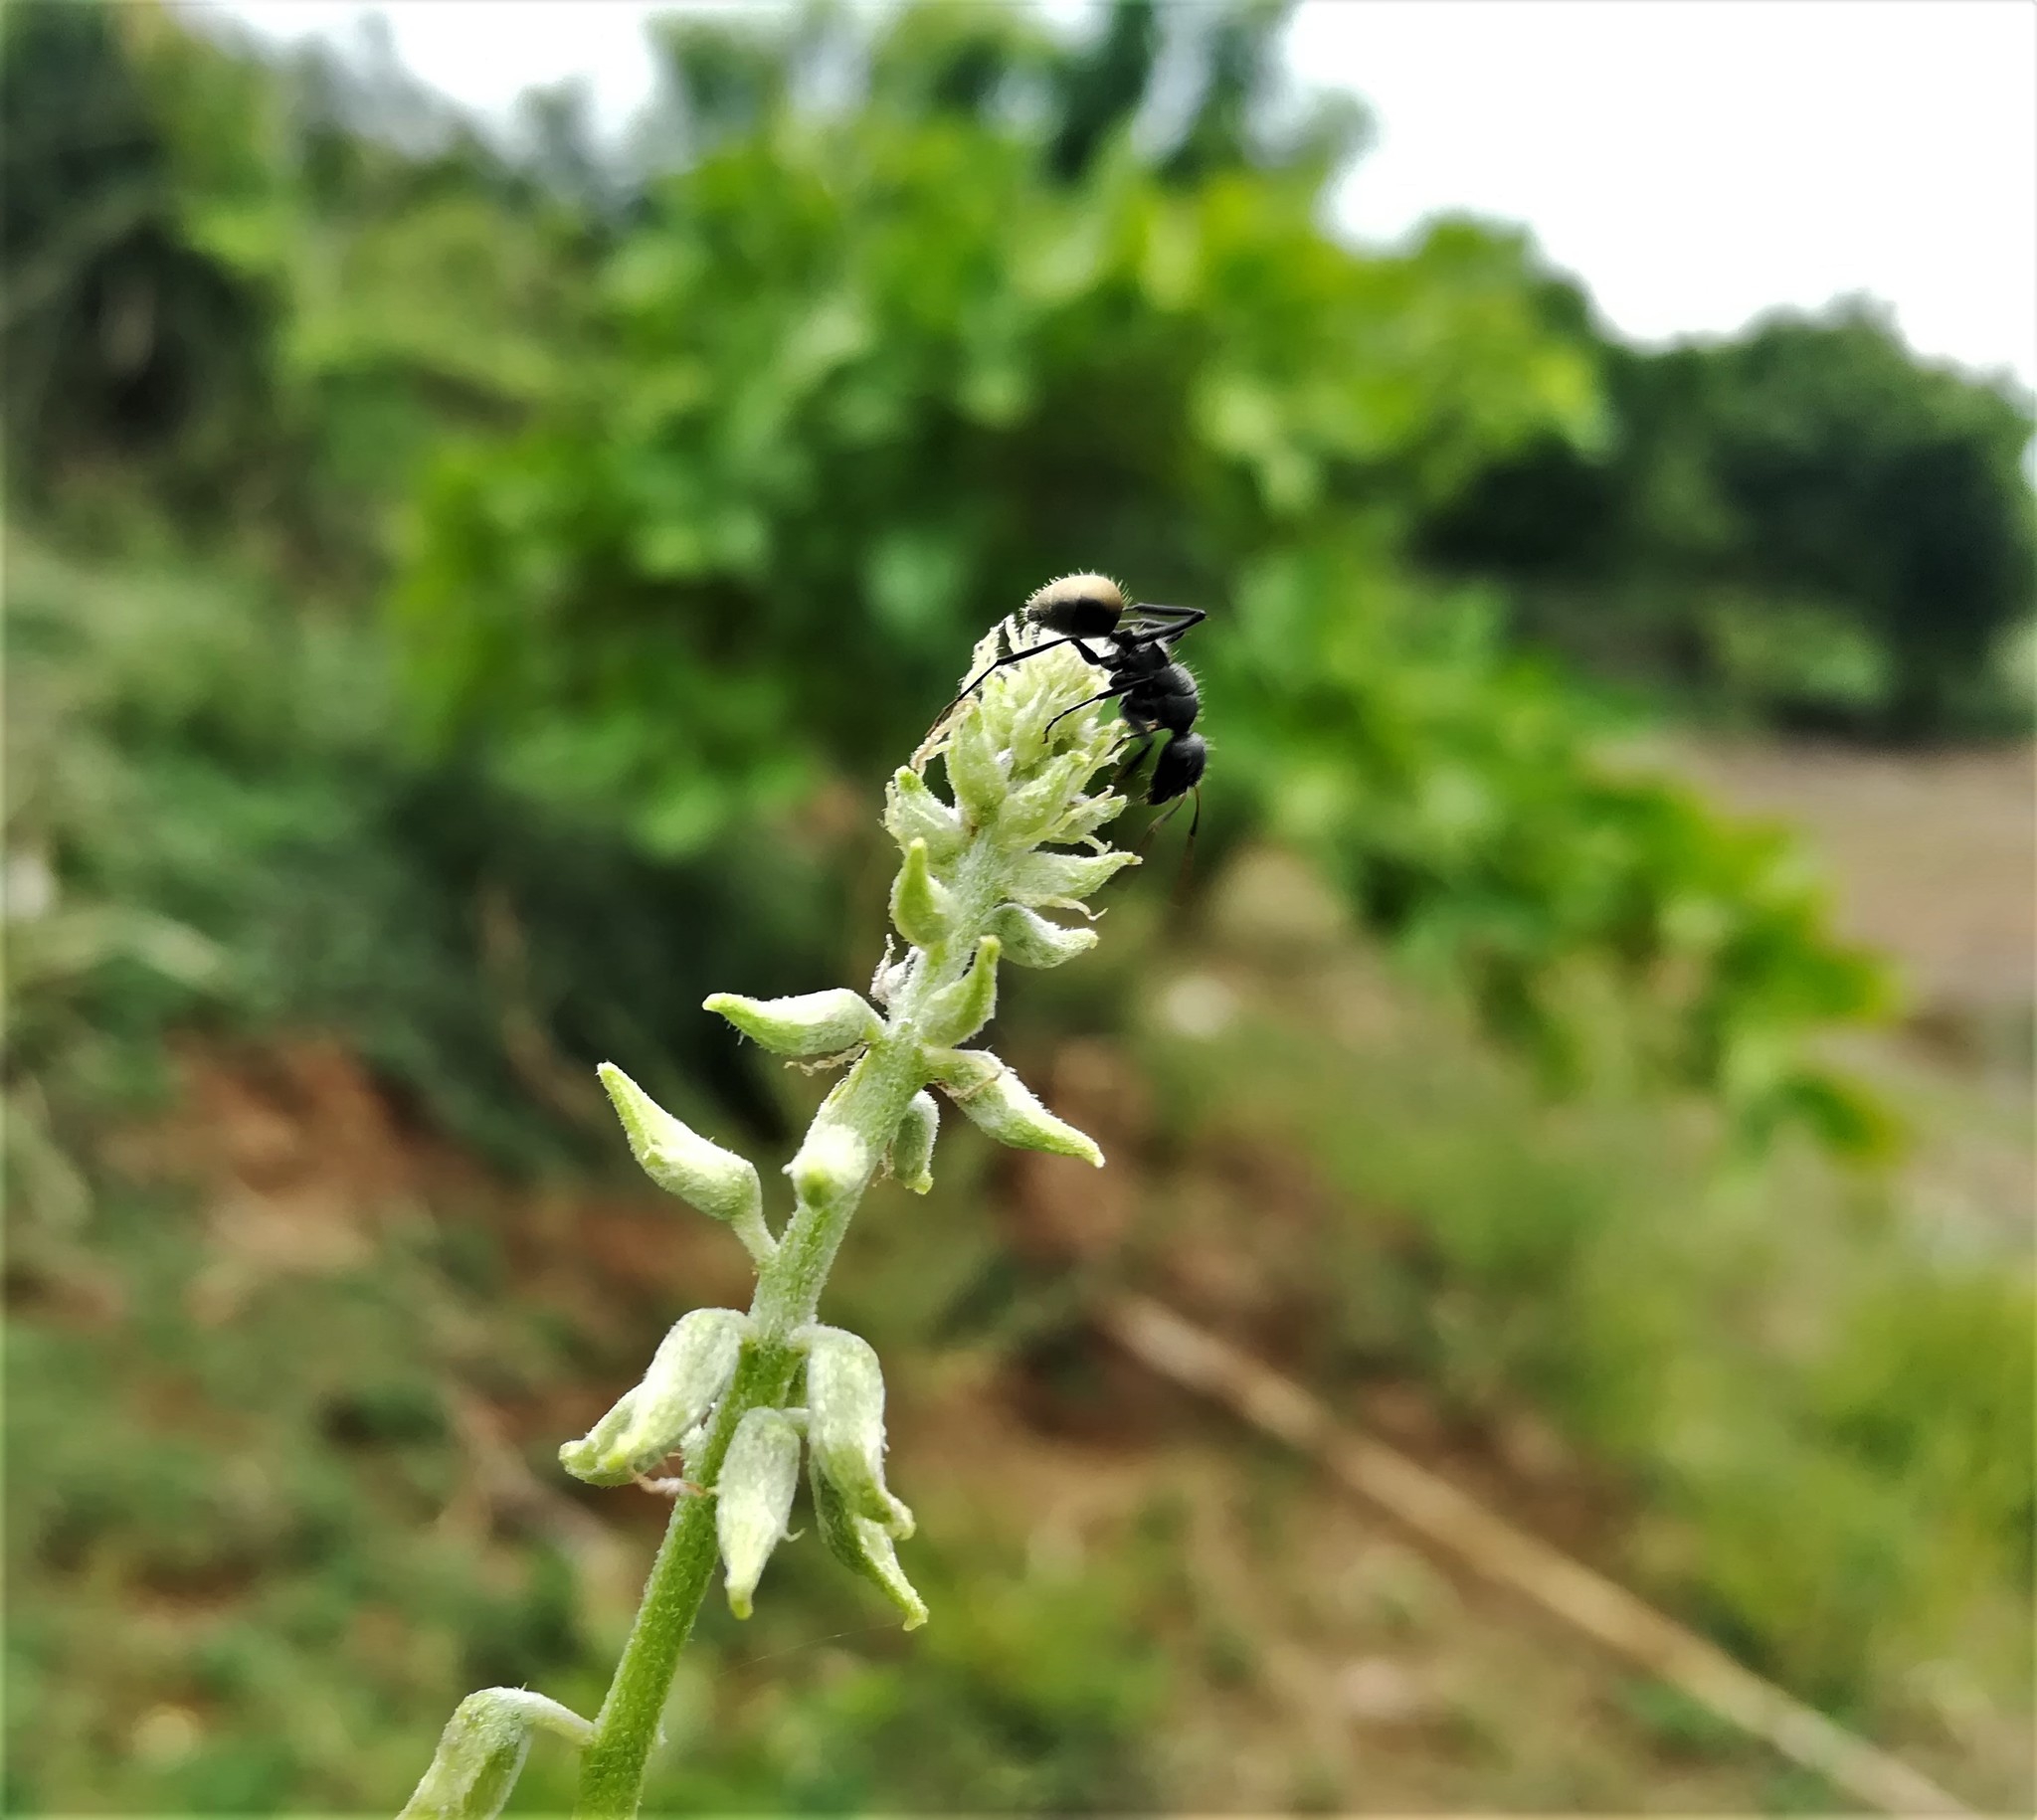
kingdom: Animalia
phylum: Arthropoda
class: Insecta
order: Hymenoptera
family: Formicidae
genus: Camponotus
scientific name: Camponotus sericeus
